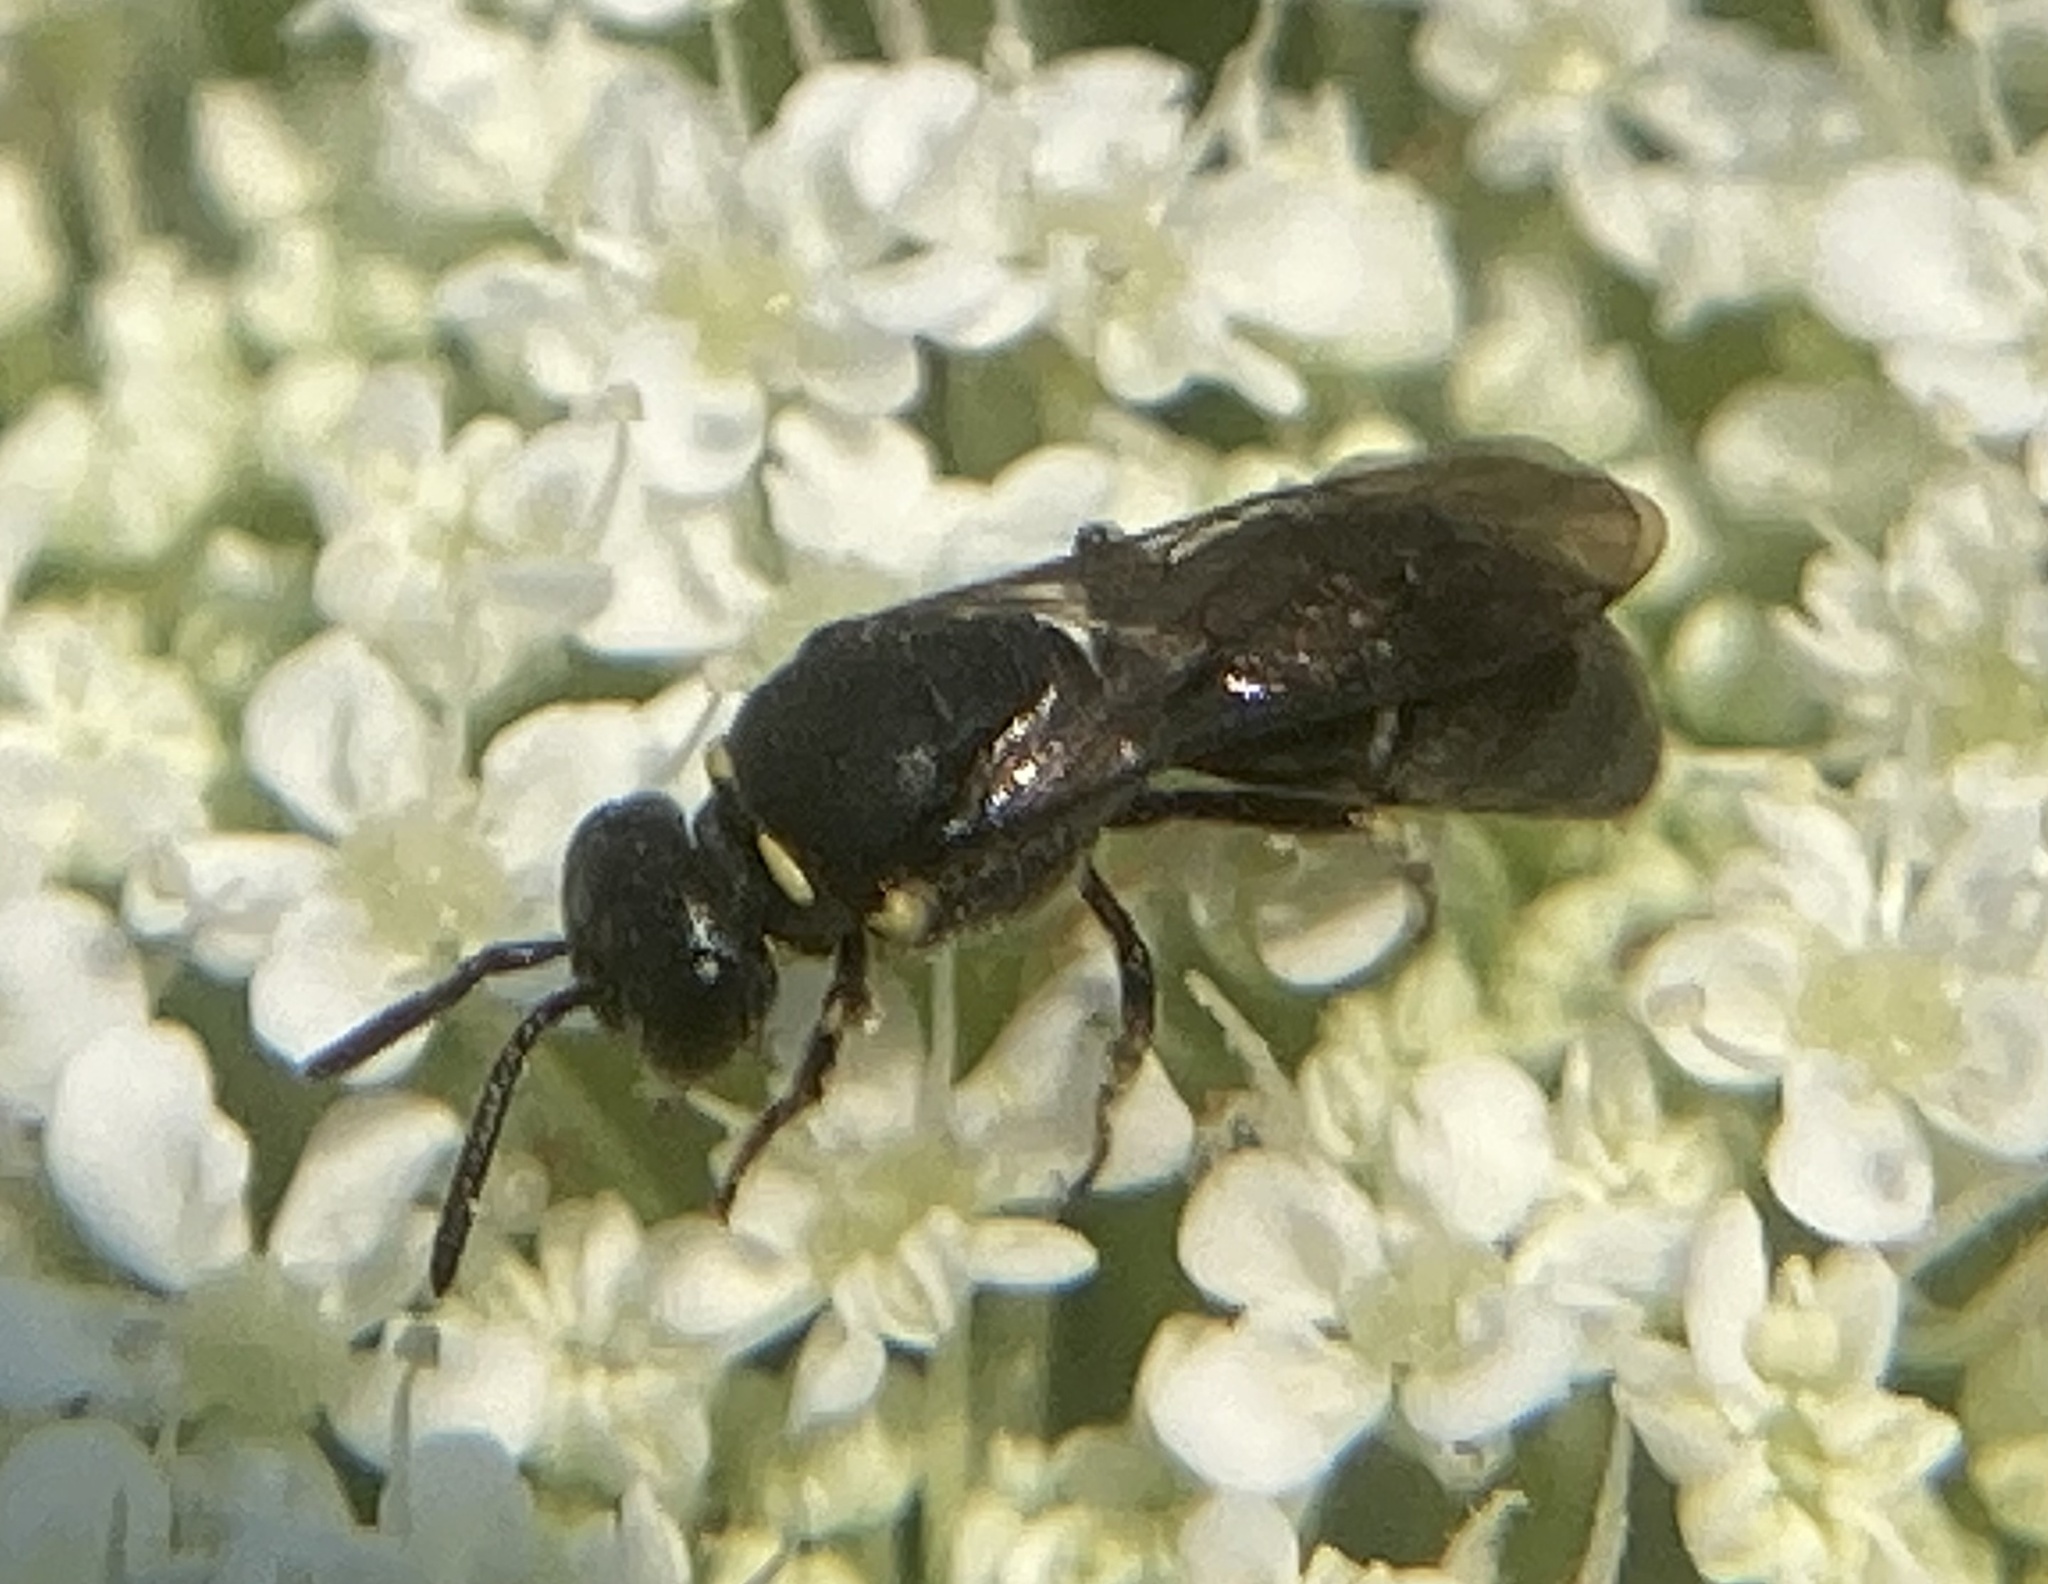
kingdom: Animalia
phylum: Arthropoda
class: Insecta
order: Hymenoptera
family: Colletidae
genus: Hylaeus
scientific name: Hylaeus modestus
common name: Yellow-faced bee
